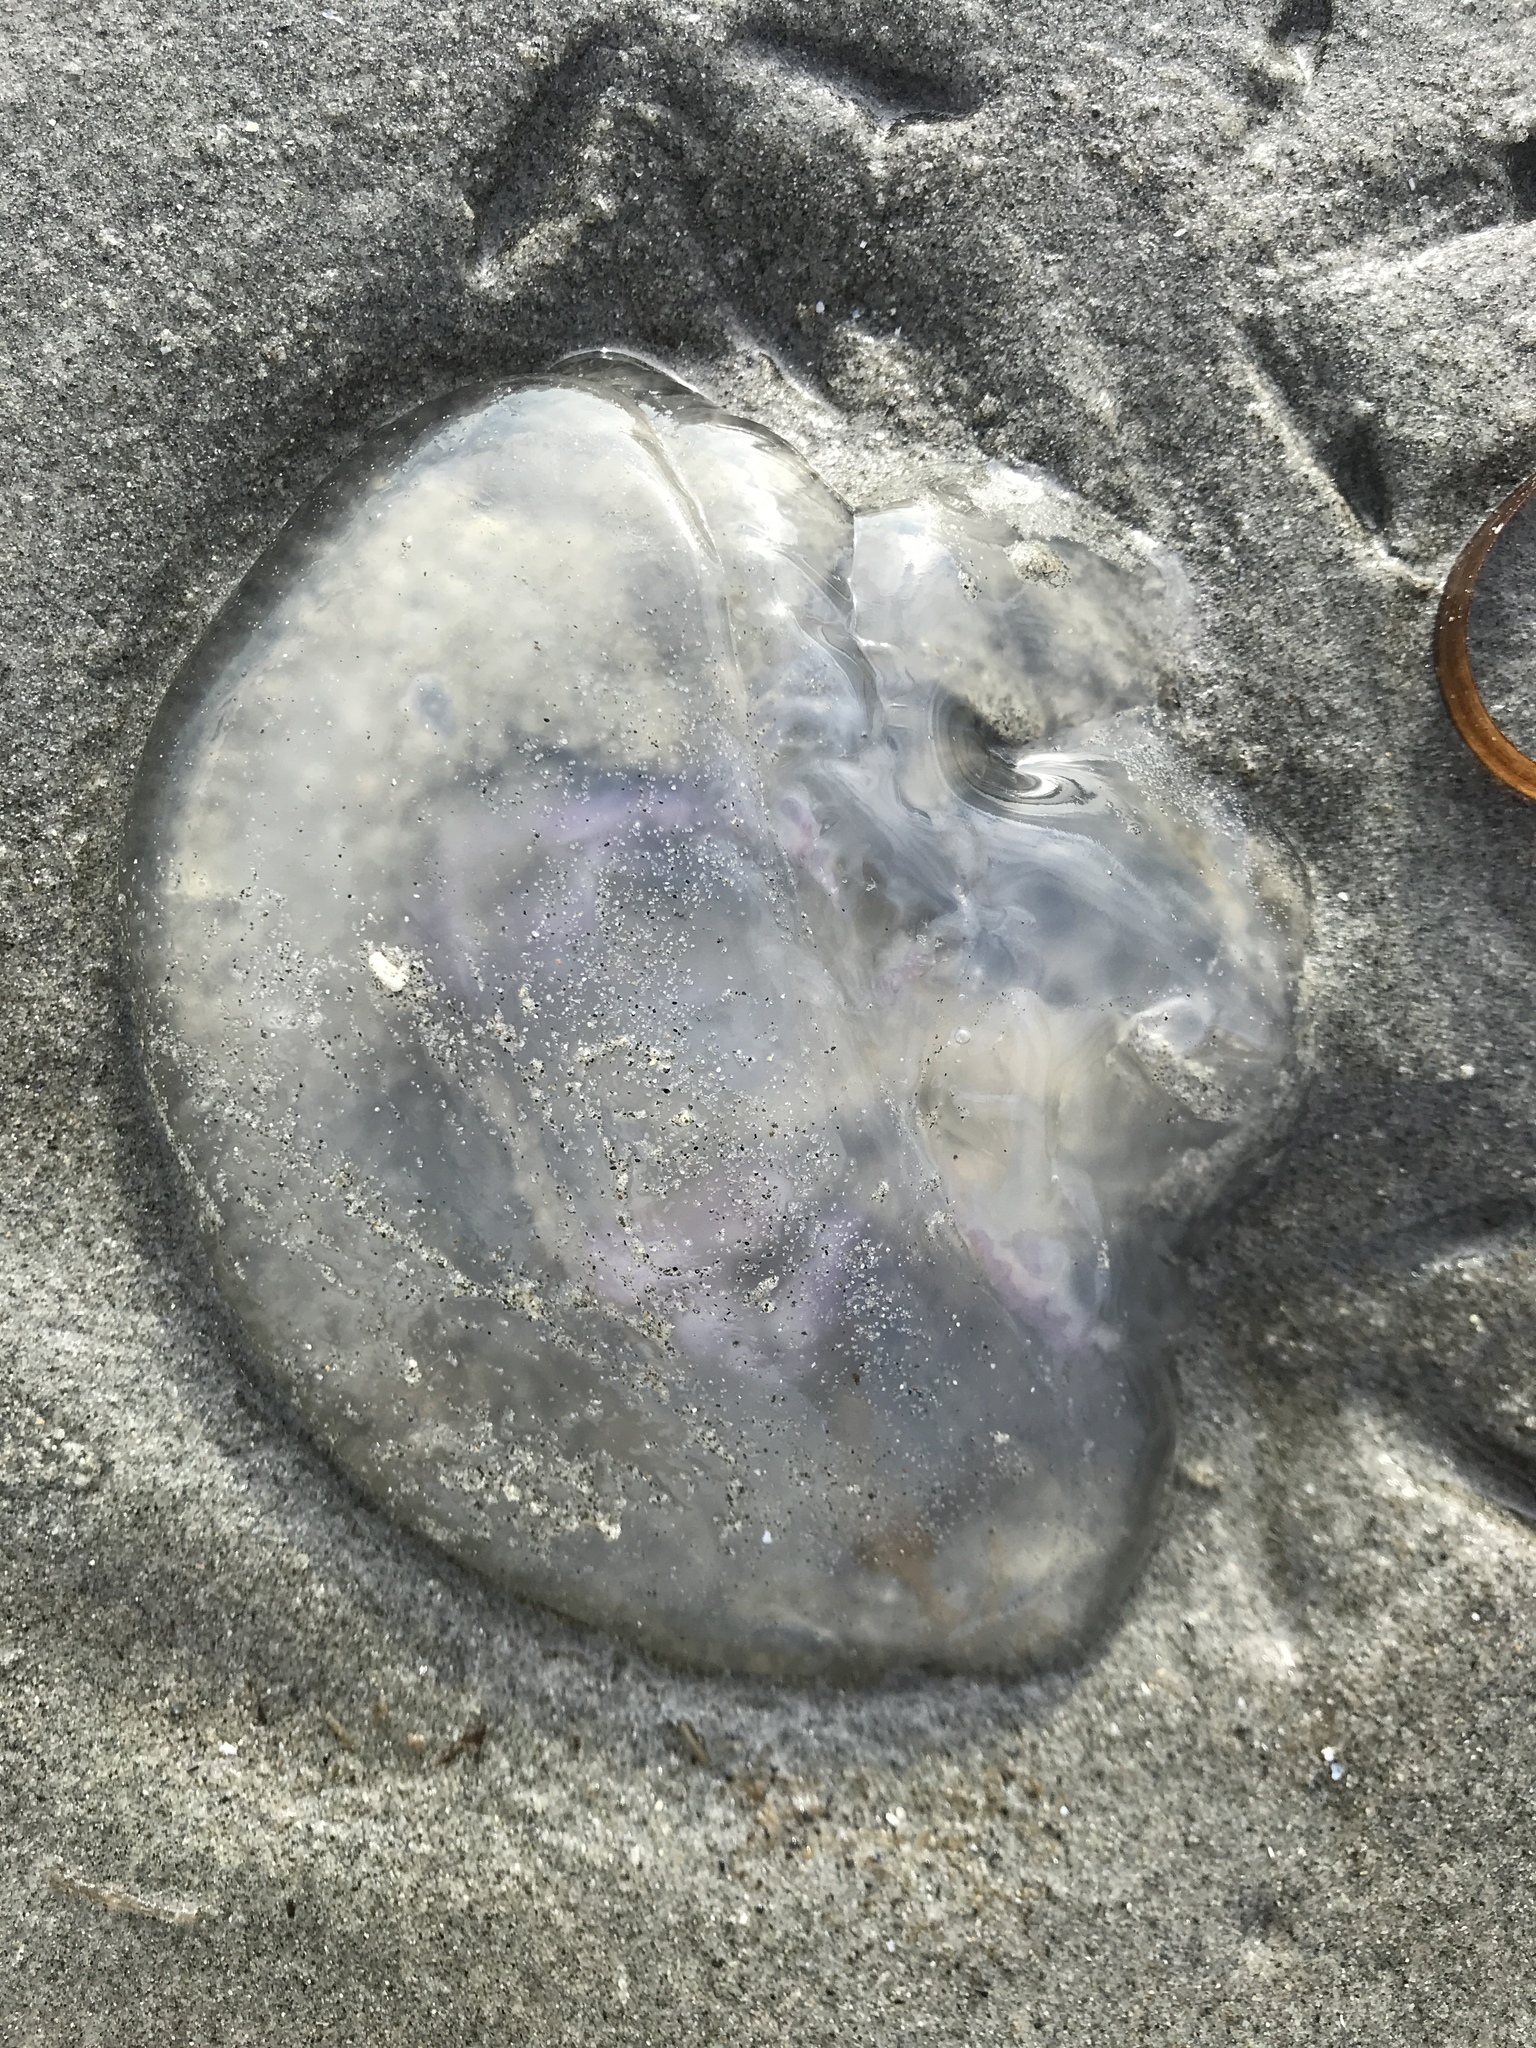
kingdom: Animalia
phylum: Cnidaria
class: Scyphozoa
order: Semaeostomeae
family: Ulmaridae
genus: Aurelia
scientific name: Aurelia labiata
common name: Pacific moon jelly
